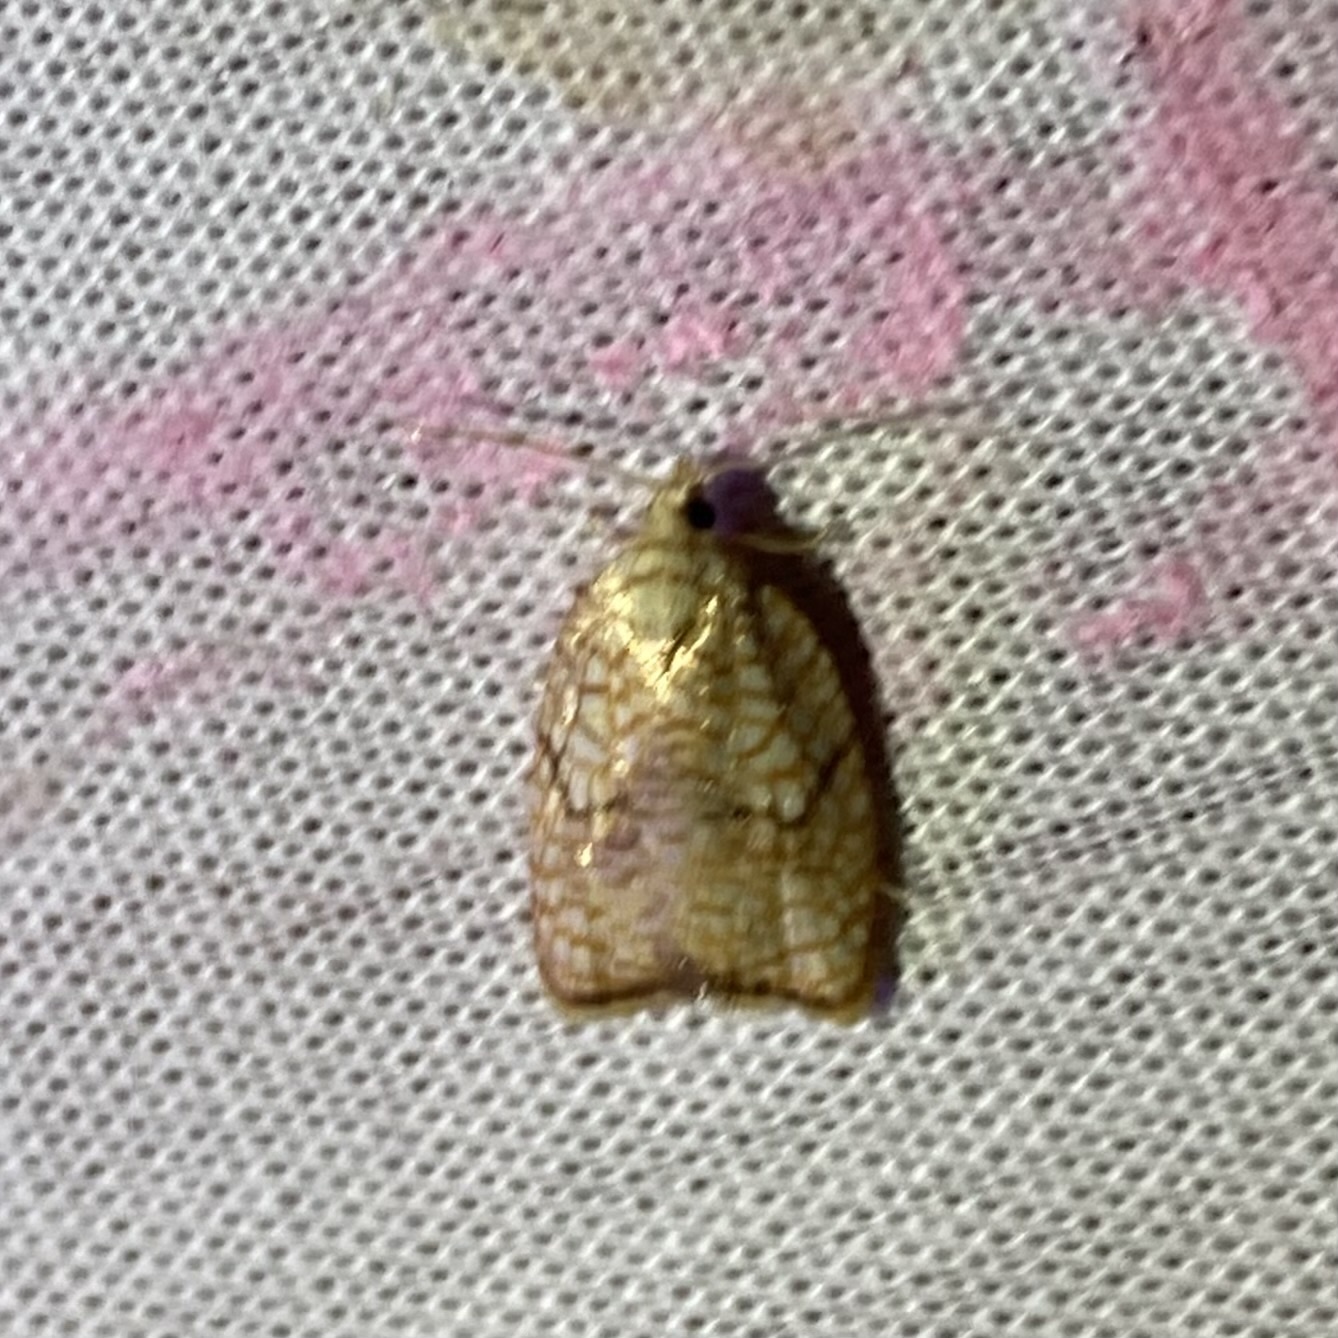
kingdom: Animalia
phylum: Arthropoda
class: Insecta
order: Lepidoptera
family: Tortricidae
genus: Acleris
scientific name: Acleris forsskaleana
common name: Maple button
